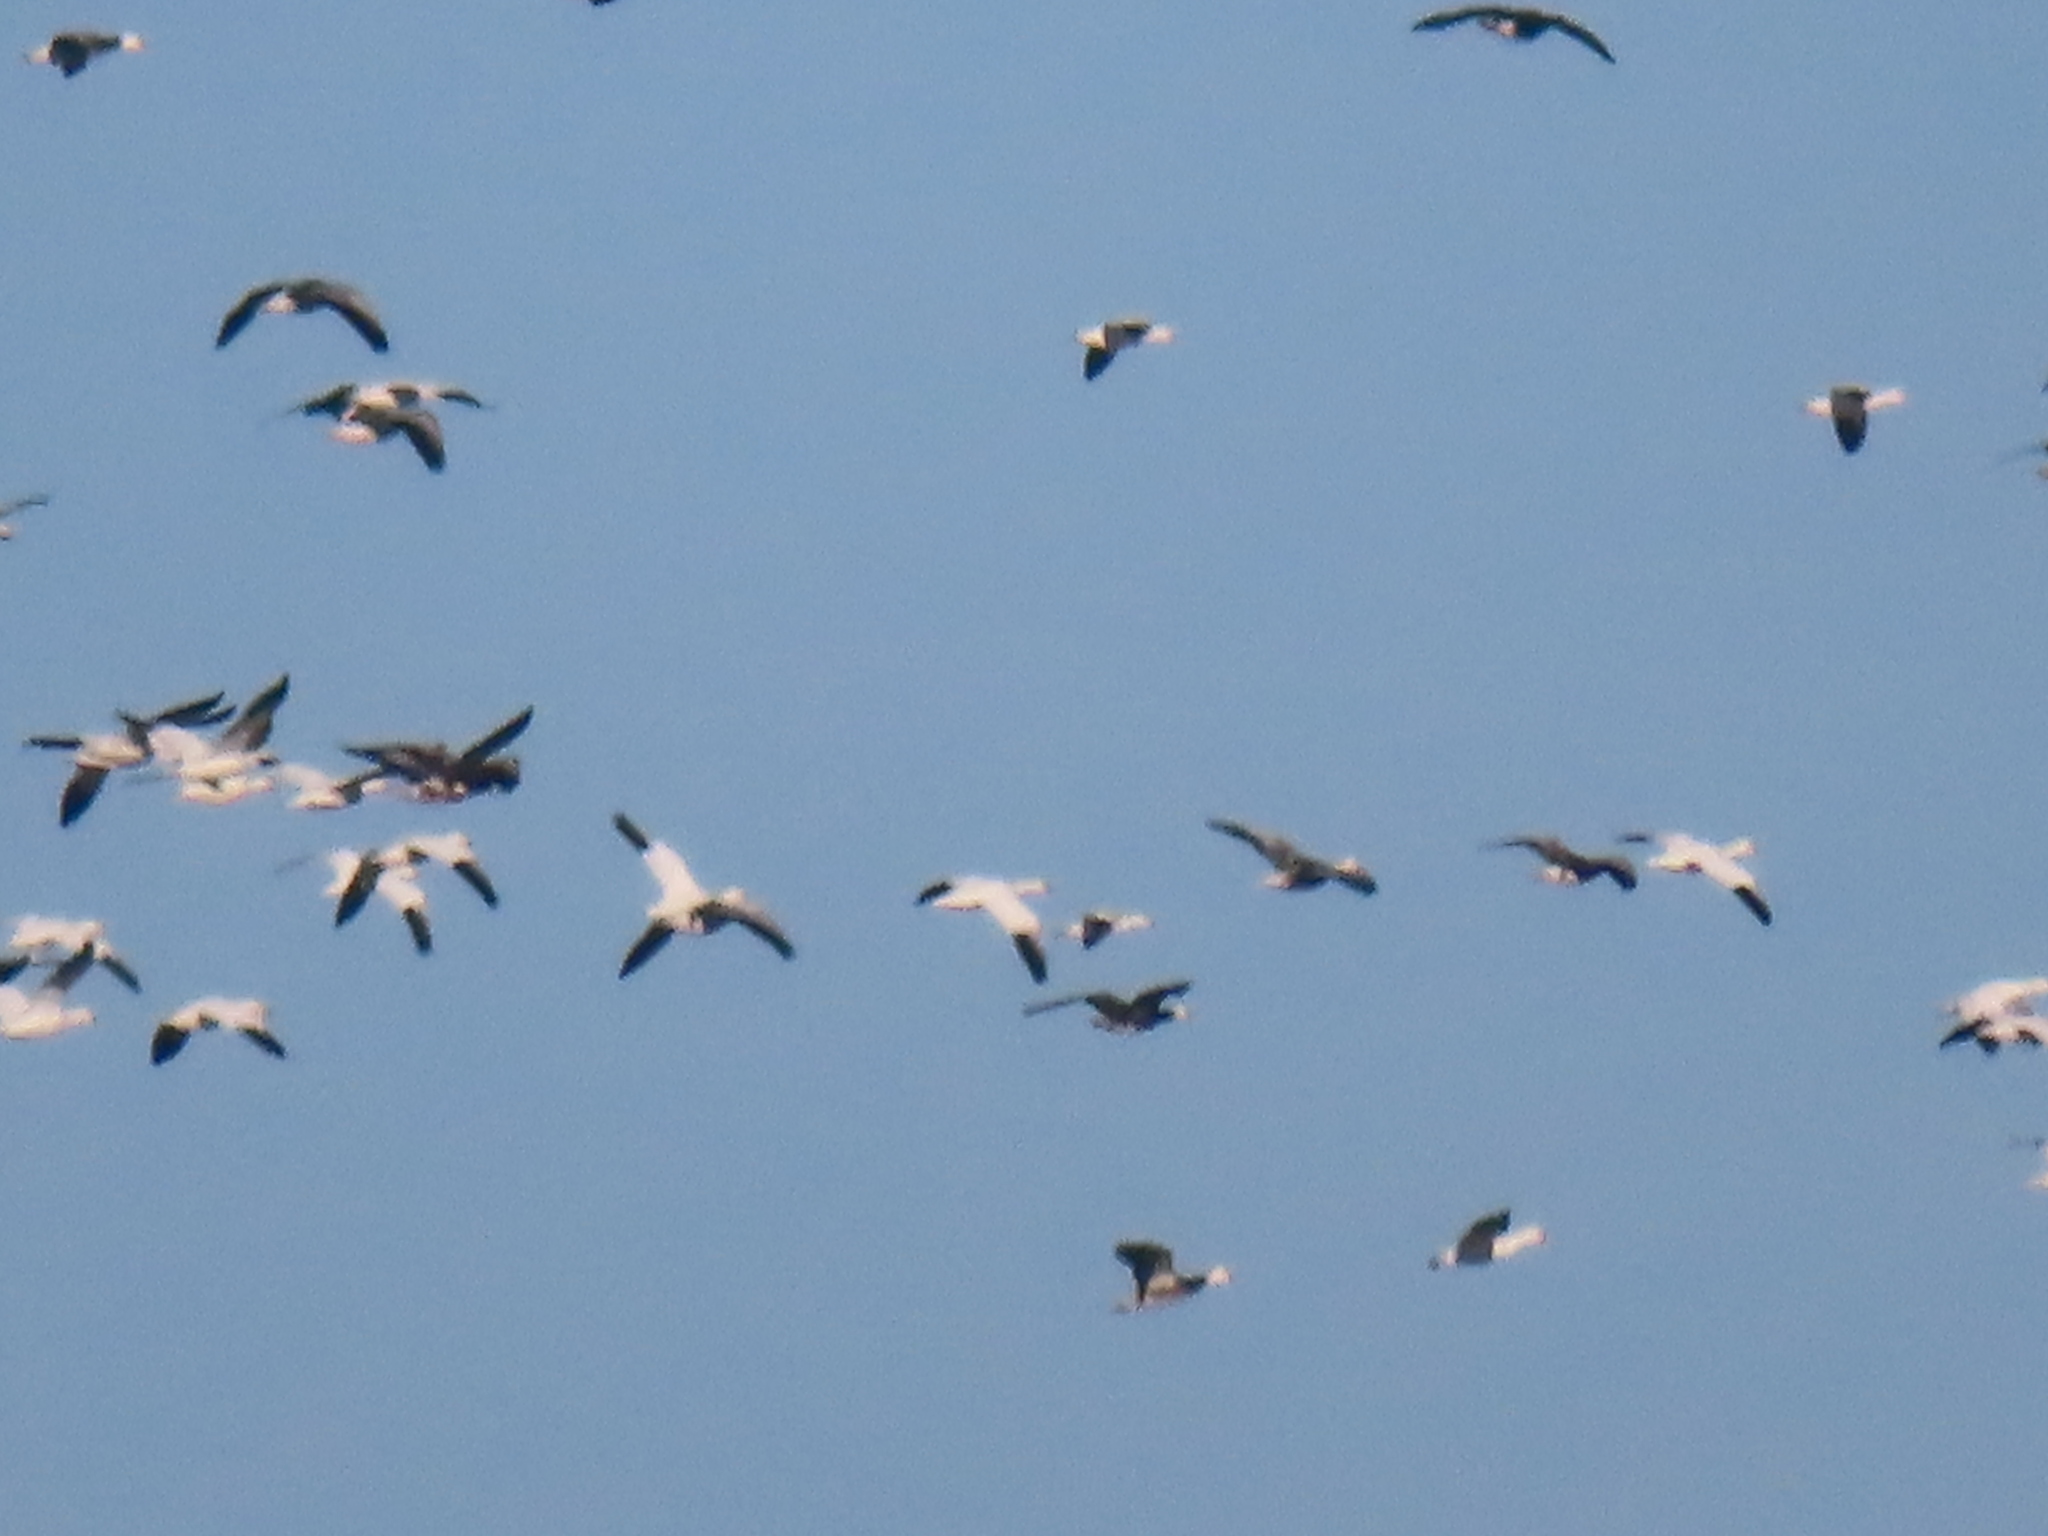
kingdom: Animalia
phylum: Chordata
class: Aves
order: Anseriformes
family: Anatidae
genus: Anser
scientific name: Anser caerulescens
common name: Snow goose
